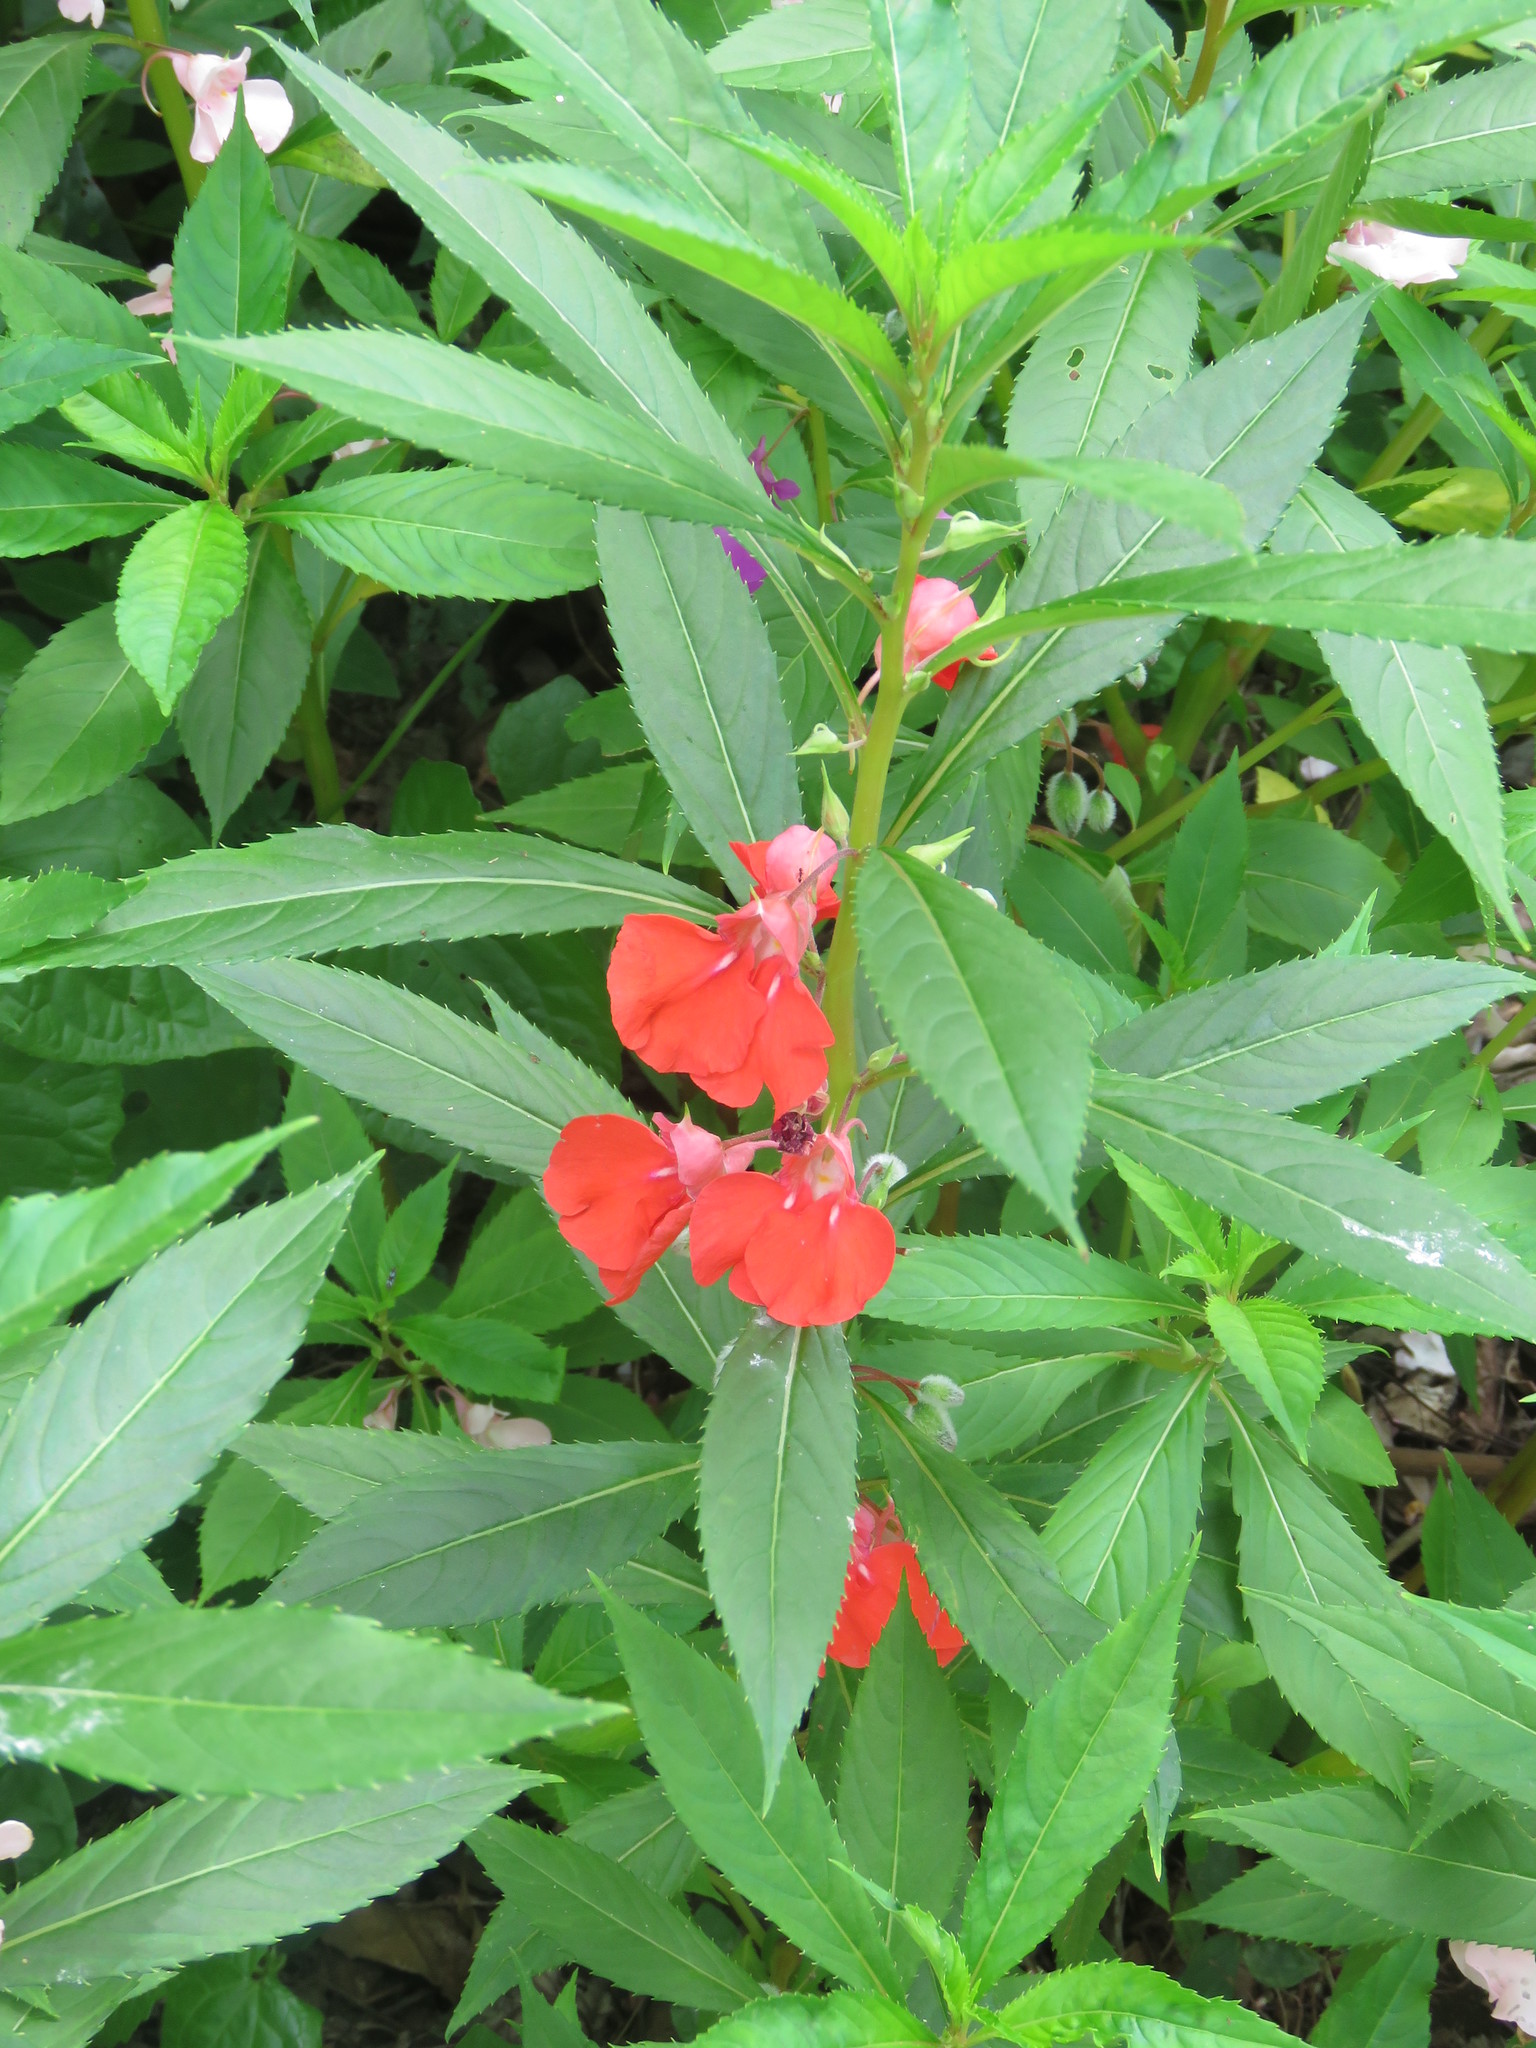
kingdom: Plantae
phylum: Tracheophyta
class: Magnoliopsida
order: Ericales
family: Balsaminaceae
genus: Impatiens
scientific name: Impatiens balsamina
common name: Balsam
